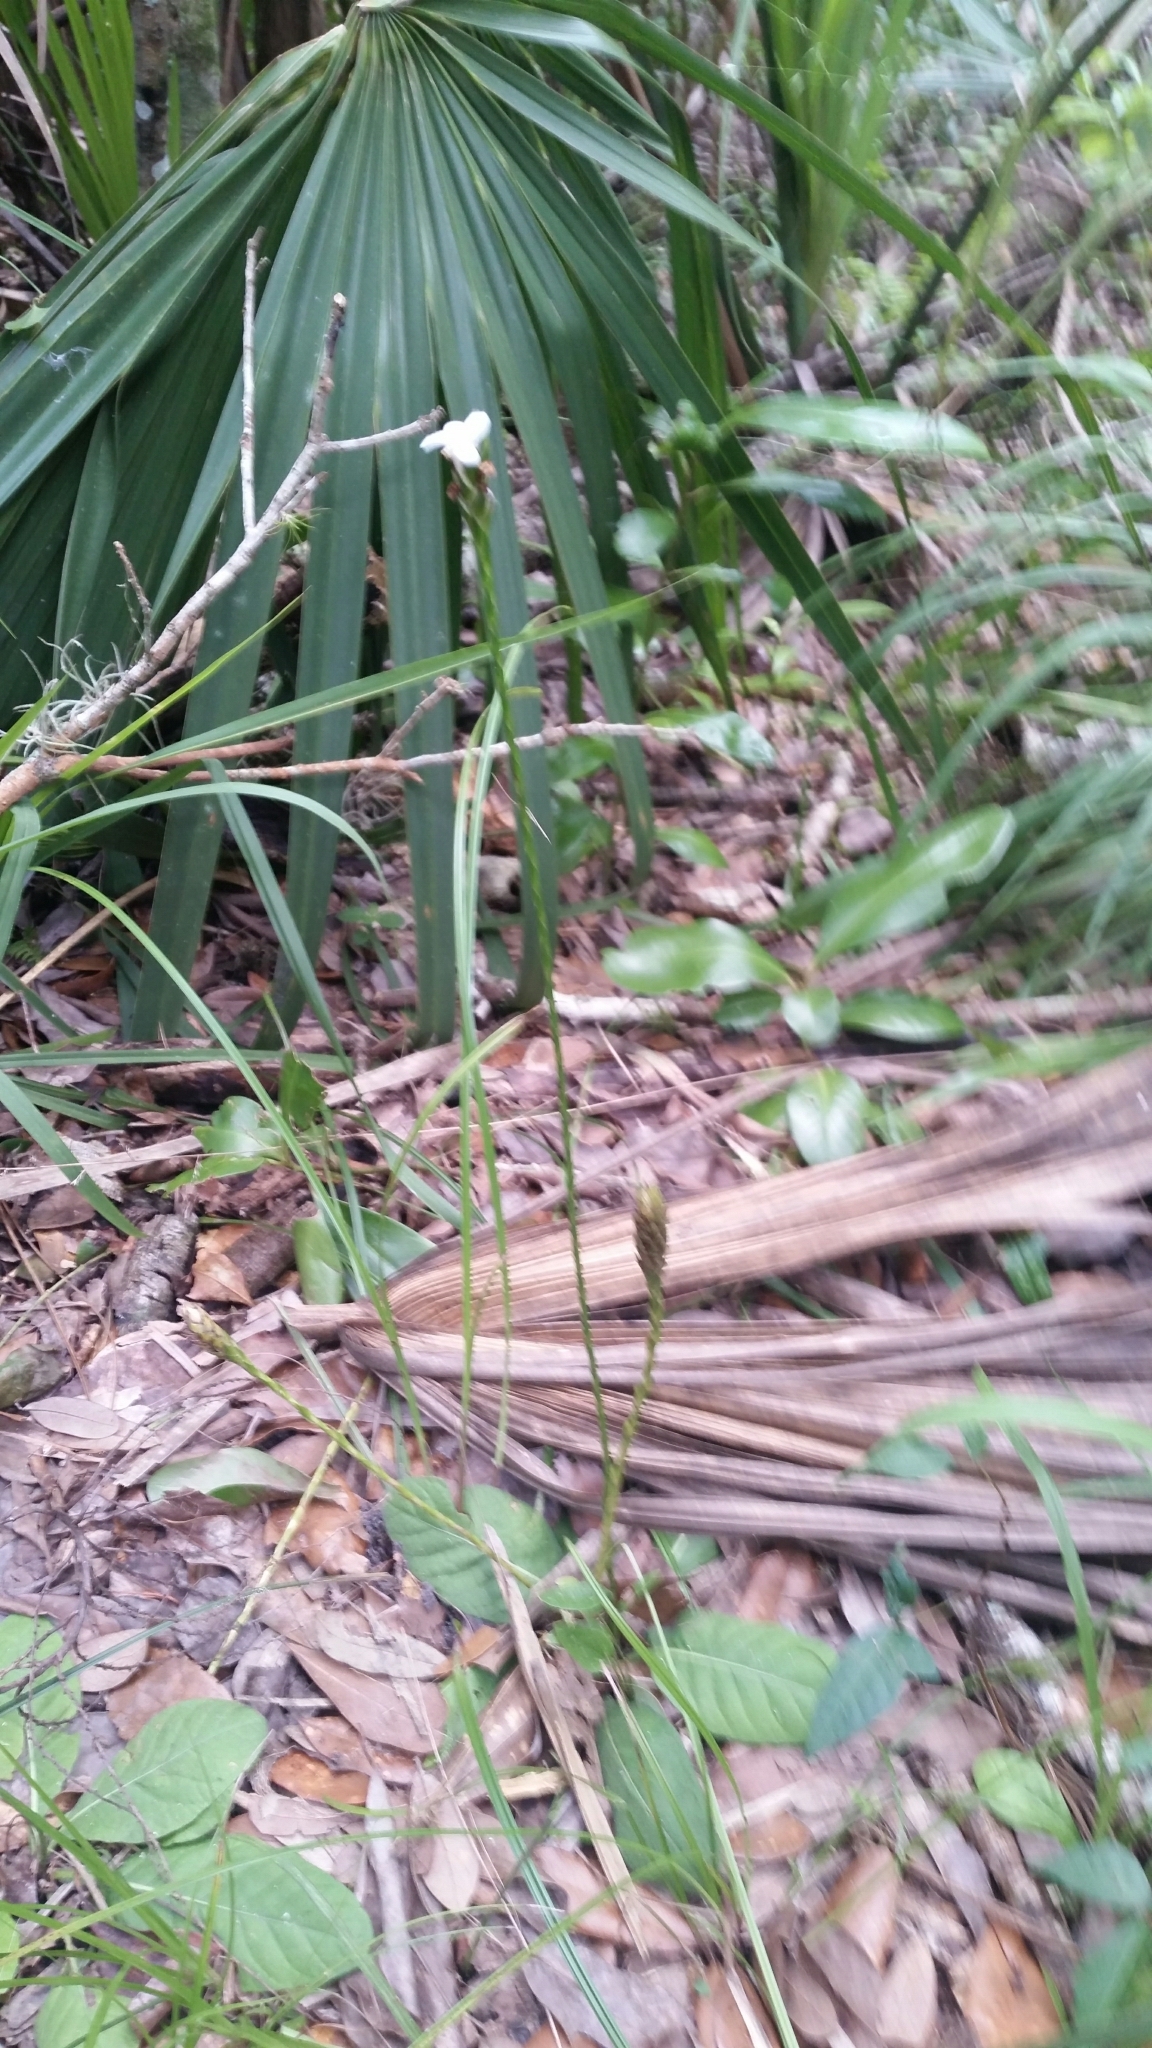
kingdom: Plantae
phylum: Tracheophyta
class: Magnoliopsida
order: Lamiales
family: Acanthaceae
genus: Elytraria
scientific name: Elytraria caroliniensis
